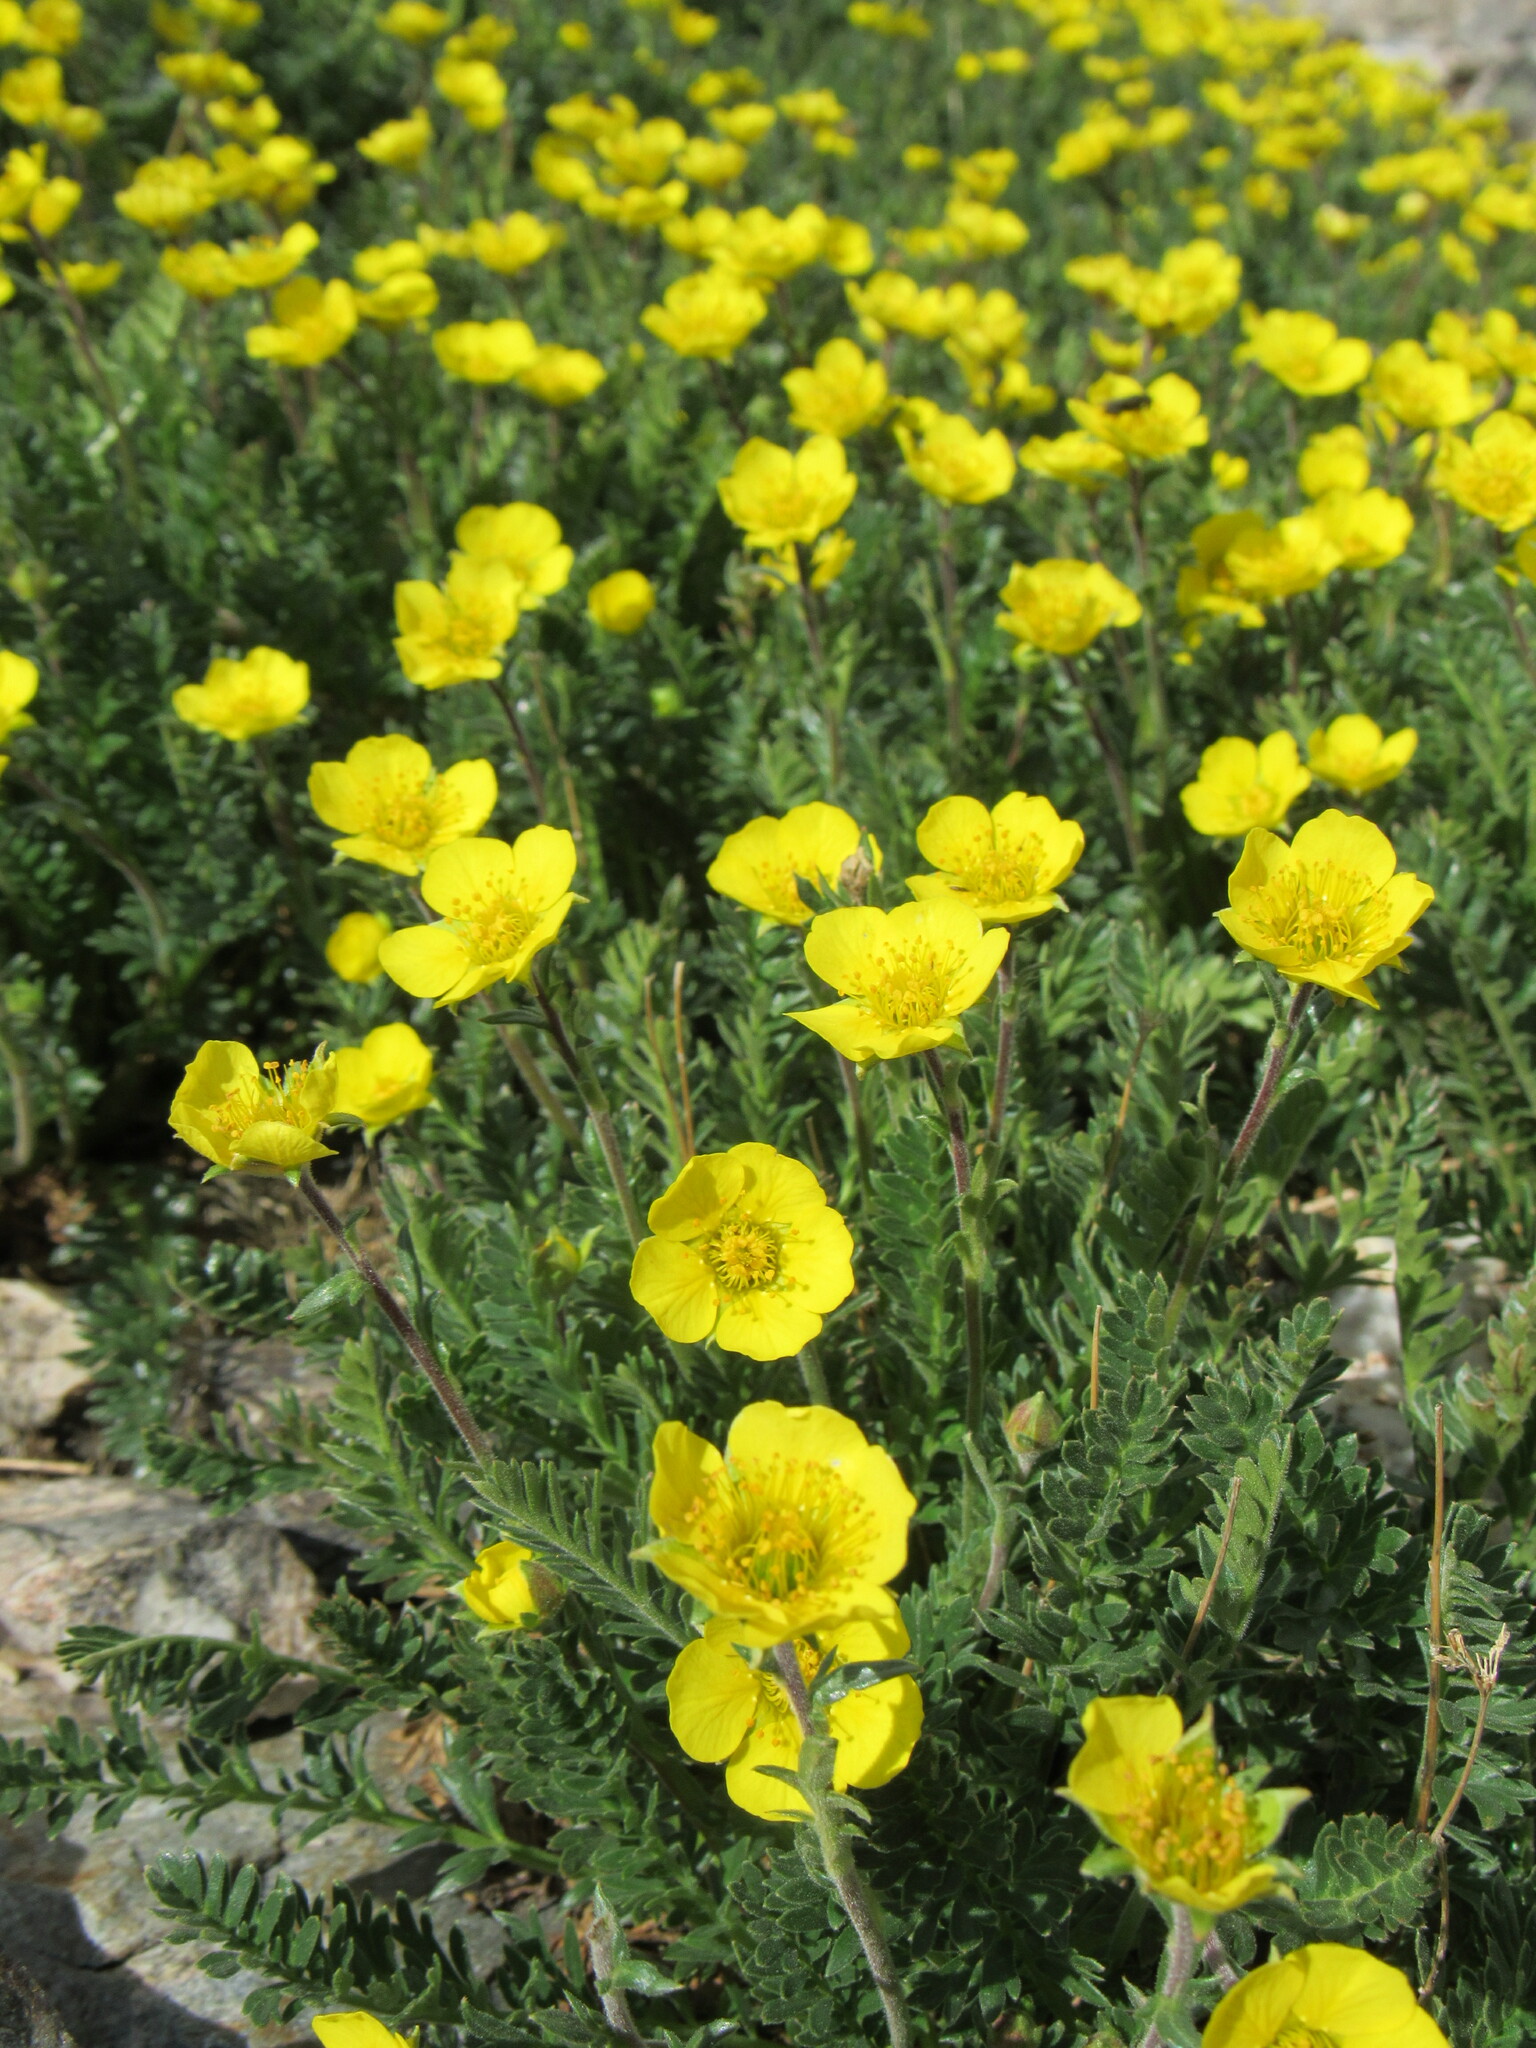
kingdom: Plantae
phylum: Tracheophyta
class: Magnoliopsida
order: Rosales
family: Rosaceae
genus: Geum
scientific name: Geum rossii
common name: Alpine avens
